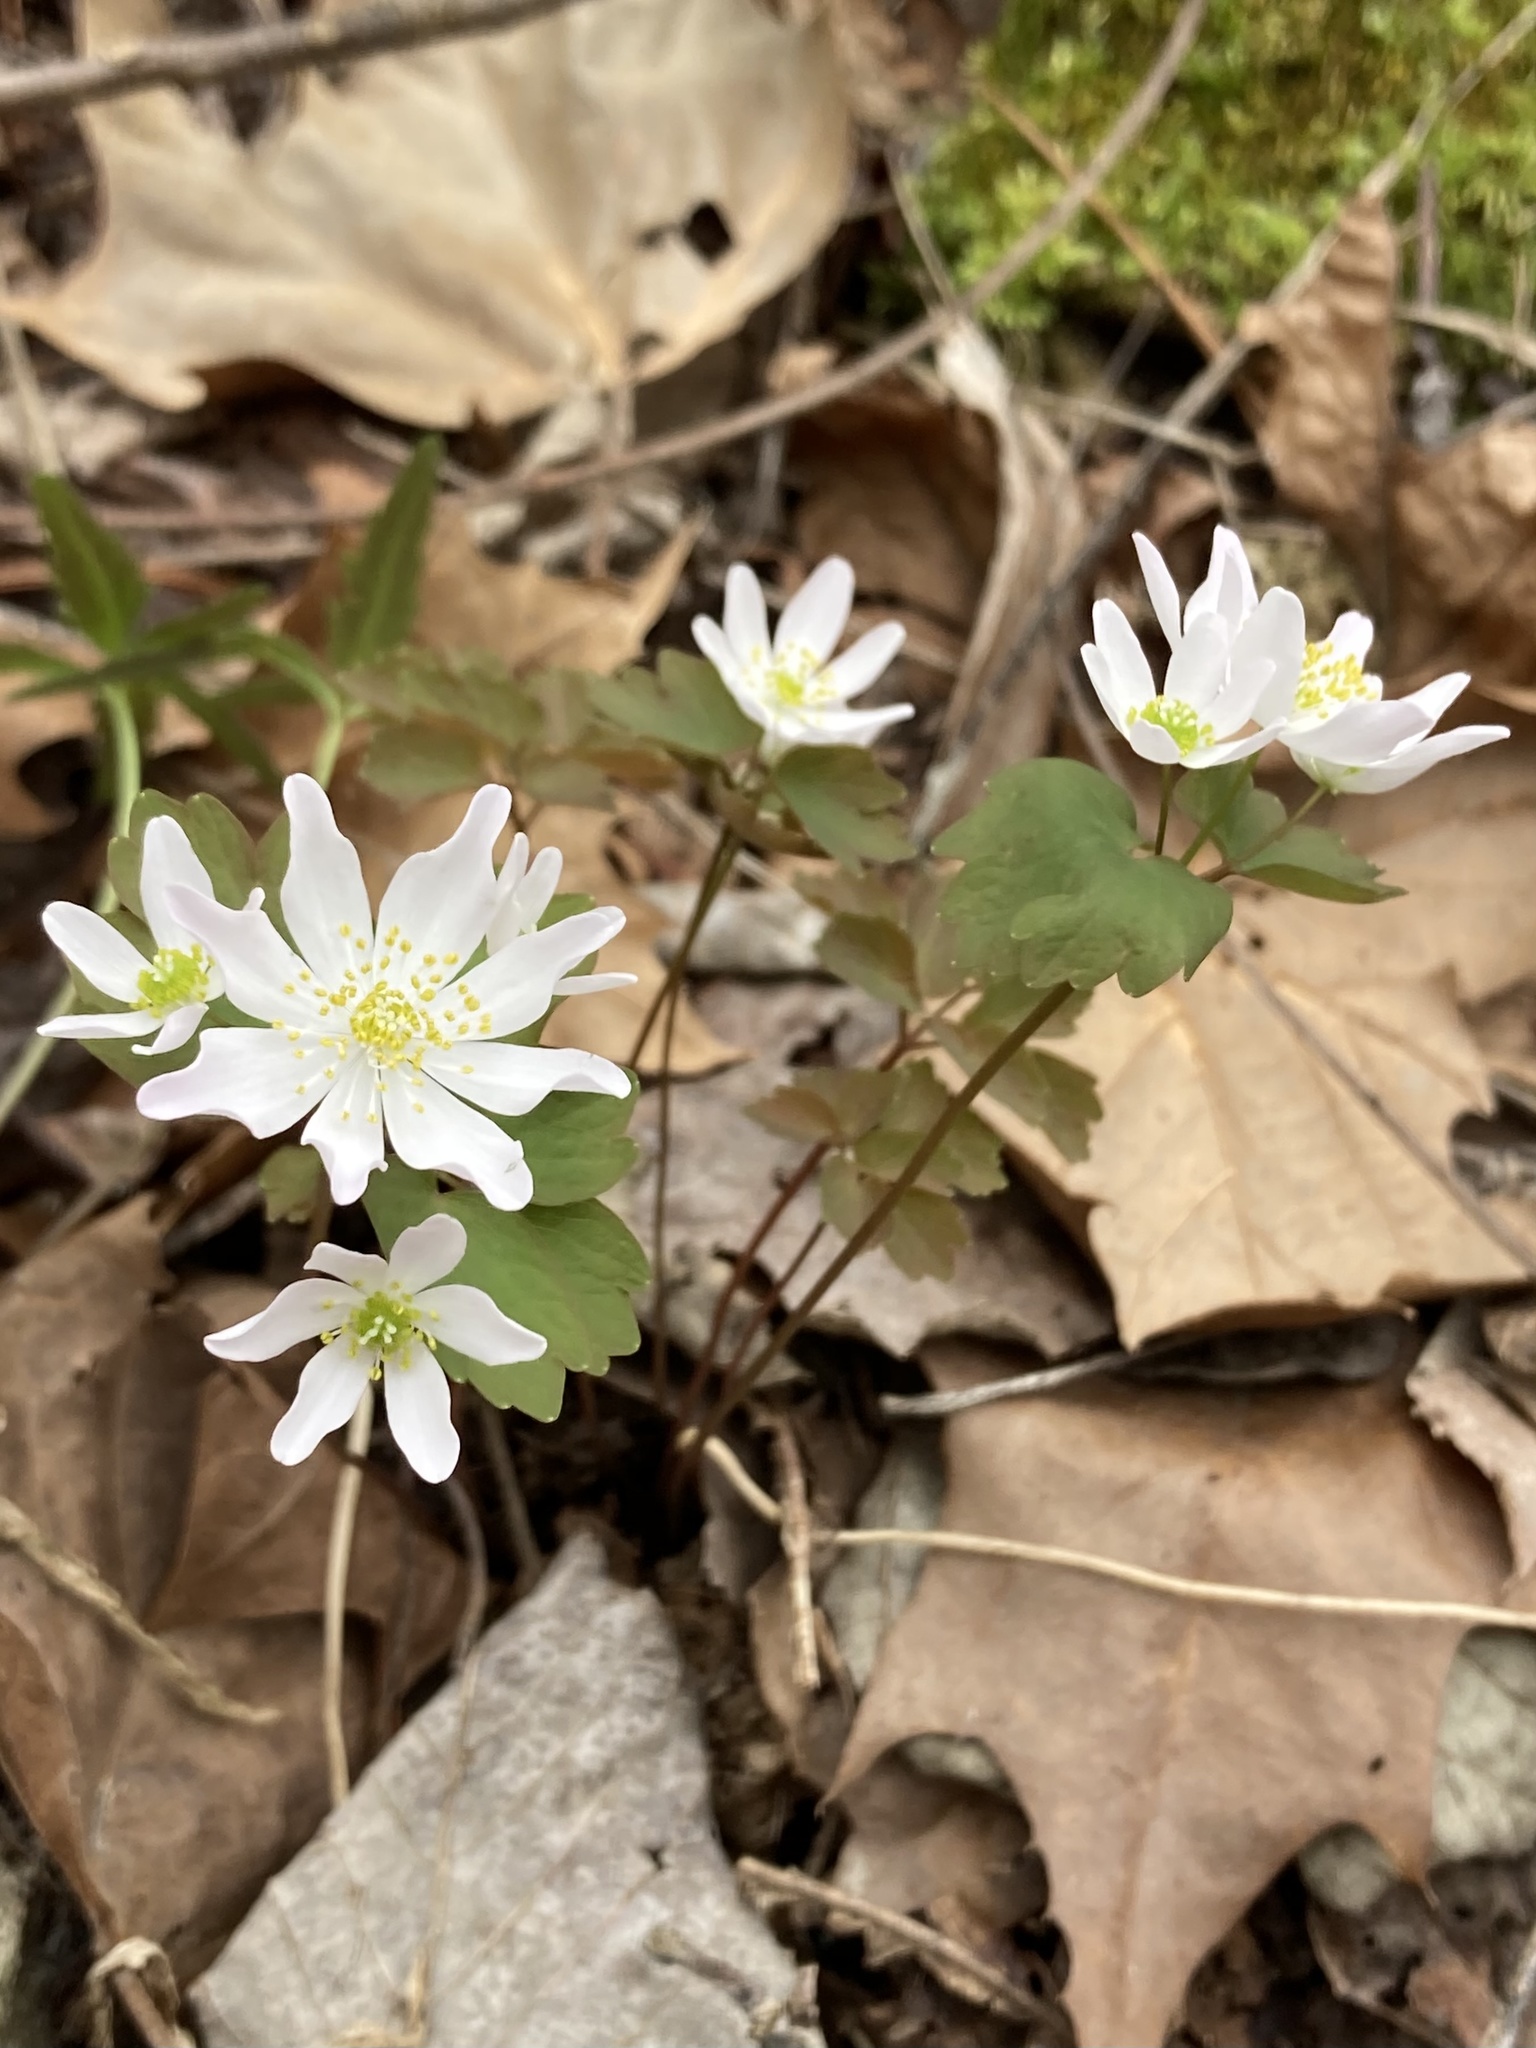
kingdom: Plantae
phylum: Tracheophyta
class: Magnoliopsida
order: Ranunculales
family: Ranunculaceae
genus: Thalictrum
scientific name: Thalictrum thalictroides
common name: Rue-anemone
